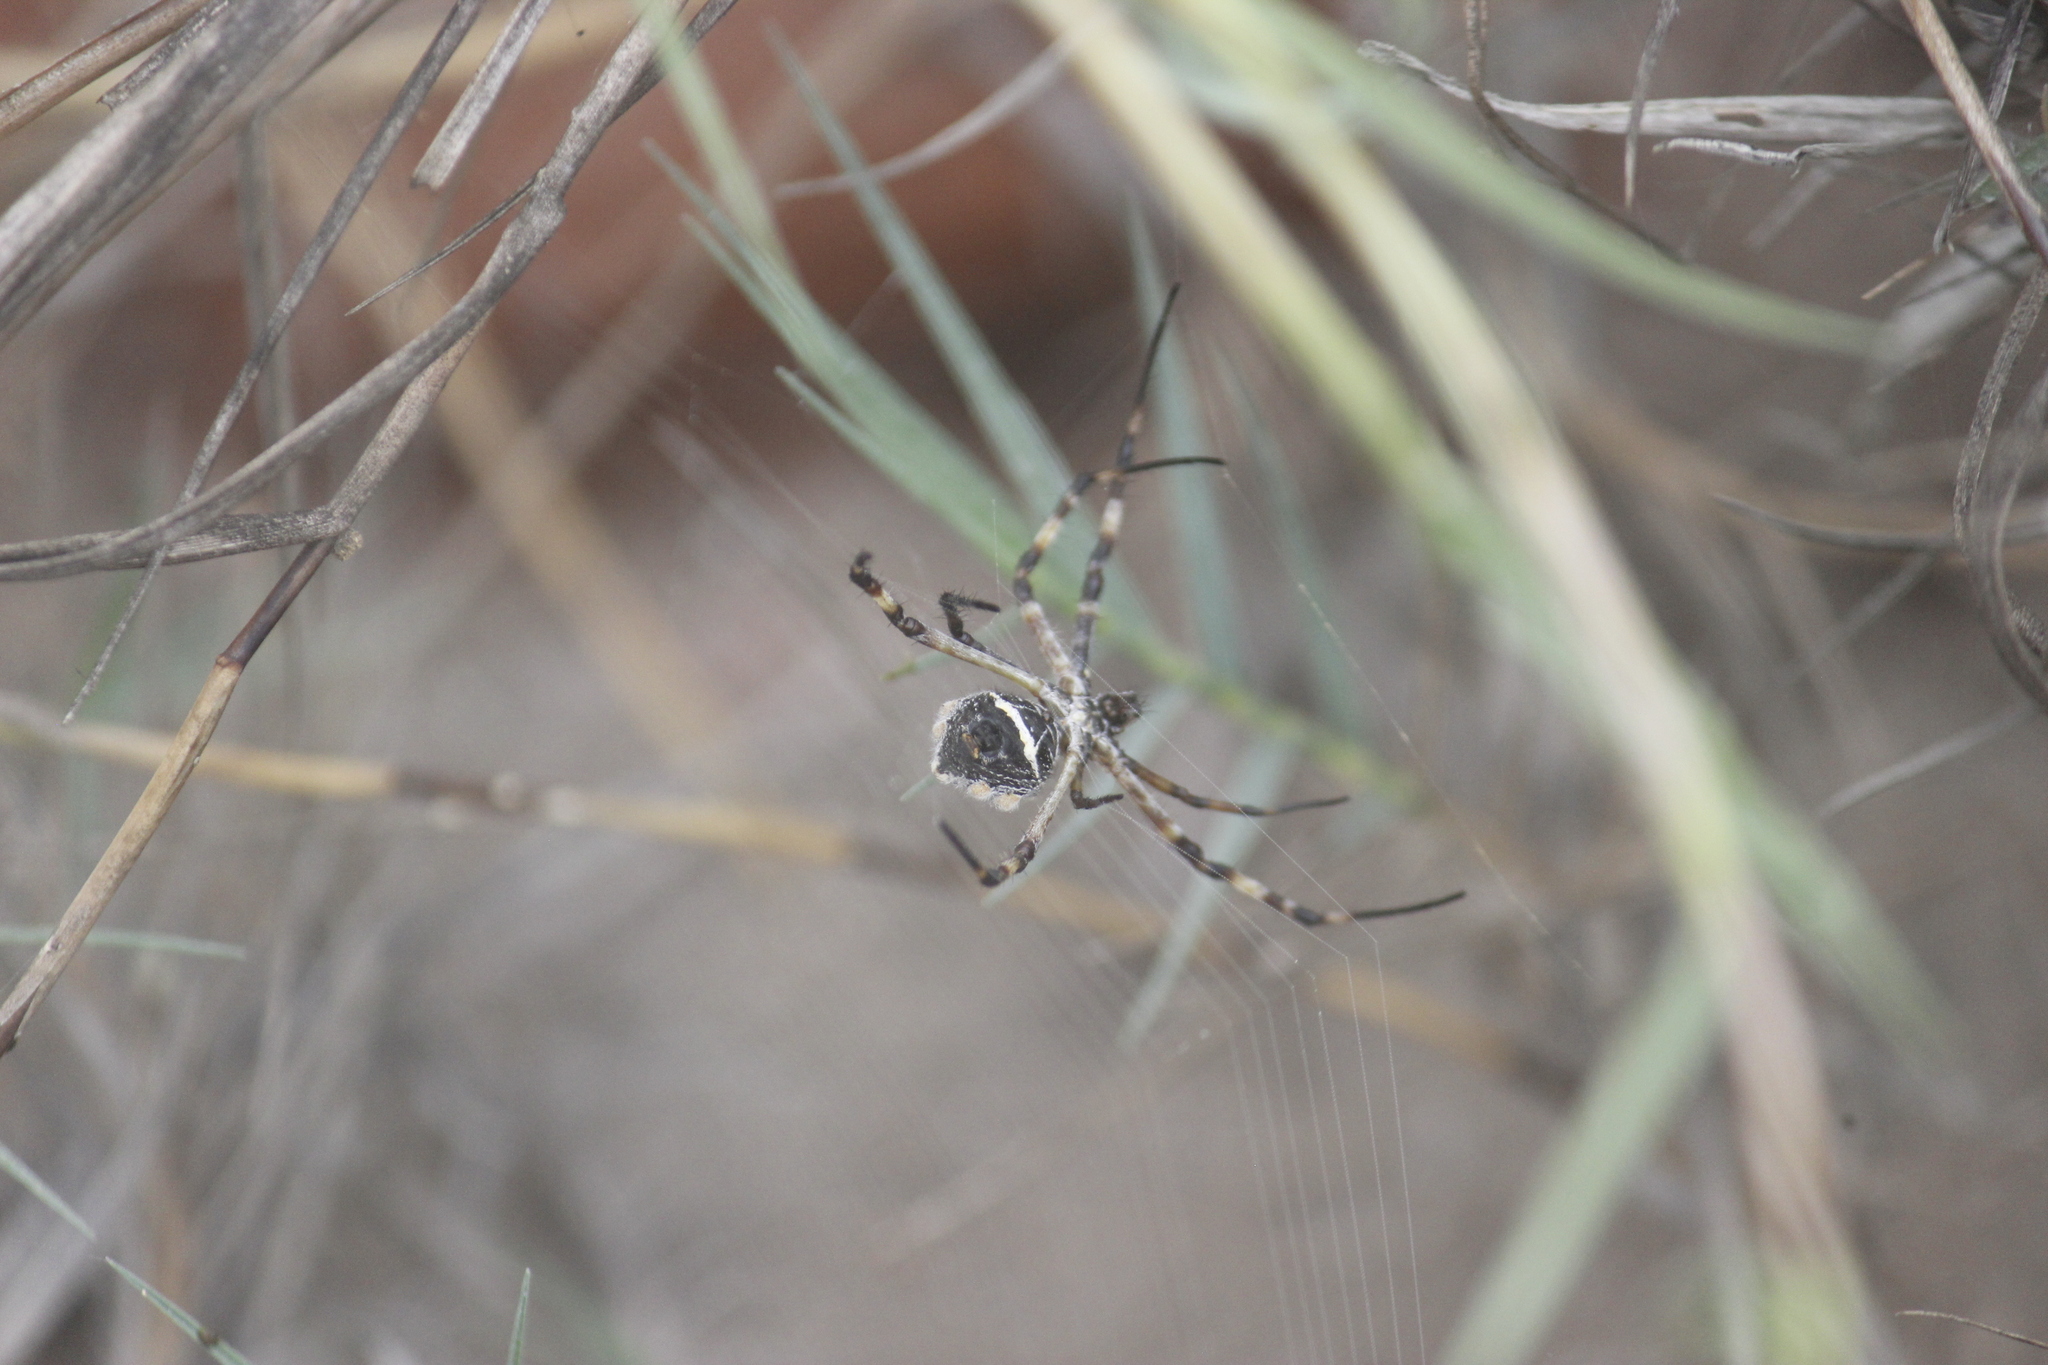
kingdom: Animalia
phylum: Arthropoda
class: Arachnida
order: Araneae
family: Araneidae
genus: Argiope
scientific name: Argiope argentata
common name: Orb weavers
